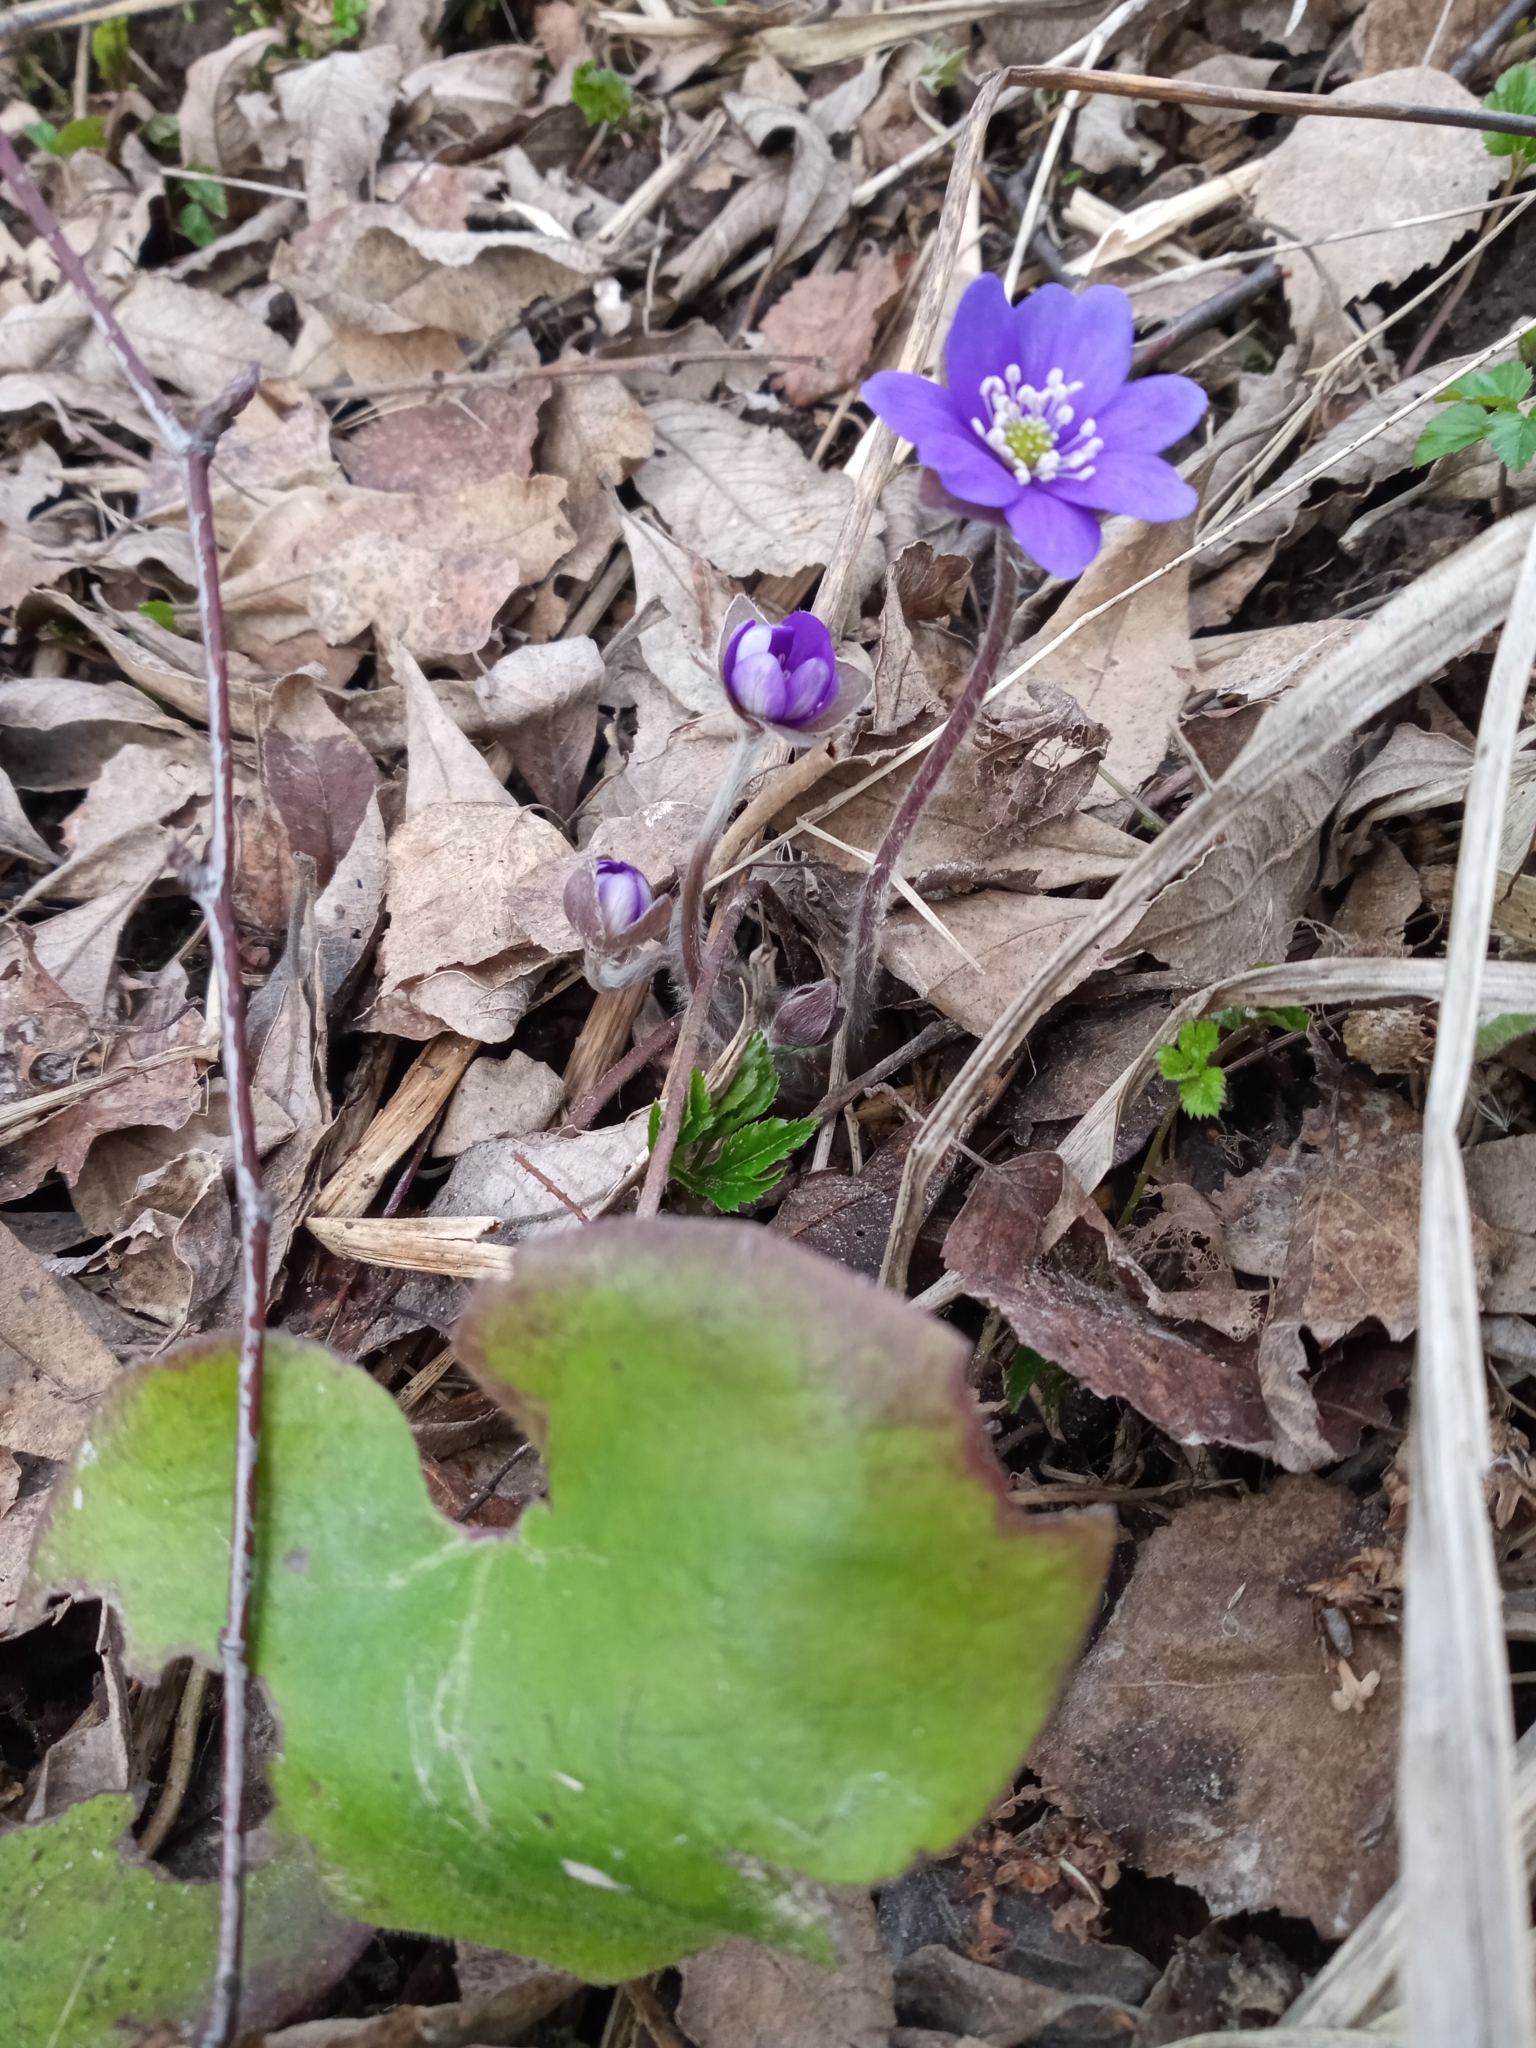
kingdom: Plantae
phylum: Tracheophyta
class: Magnoliopsida
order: Ranunculales
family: Ranunculaceae
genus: Hepatica
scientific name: Hepatica nobilis
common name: Liverleaf
